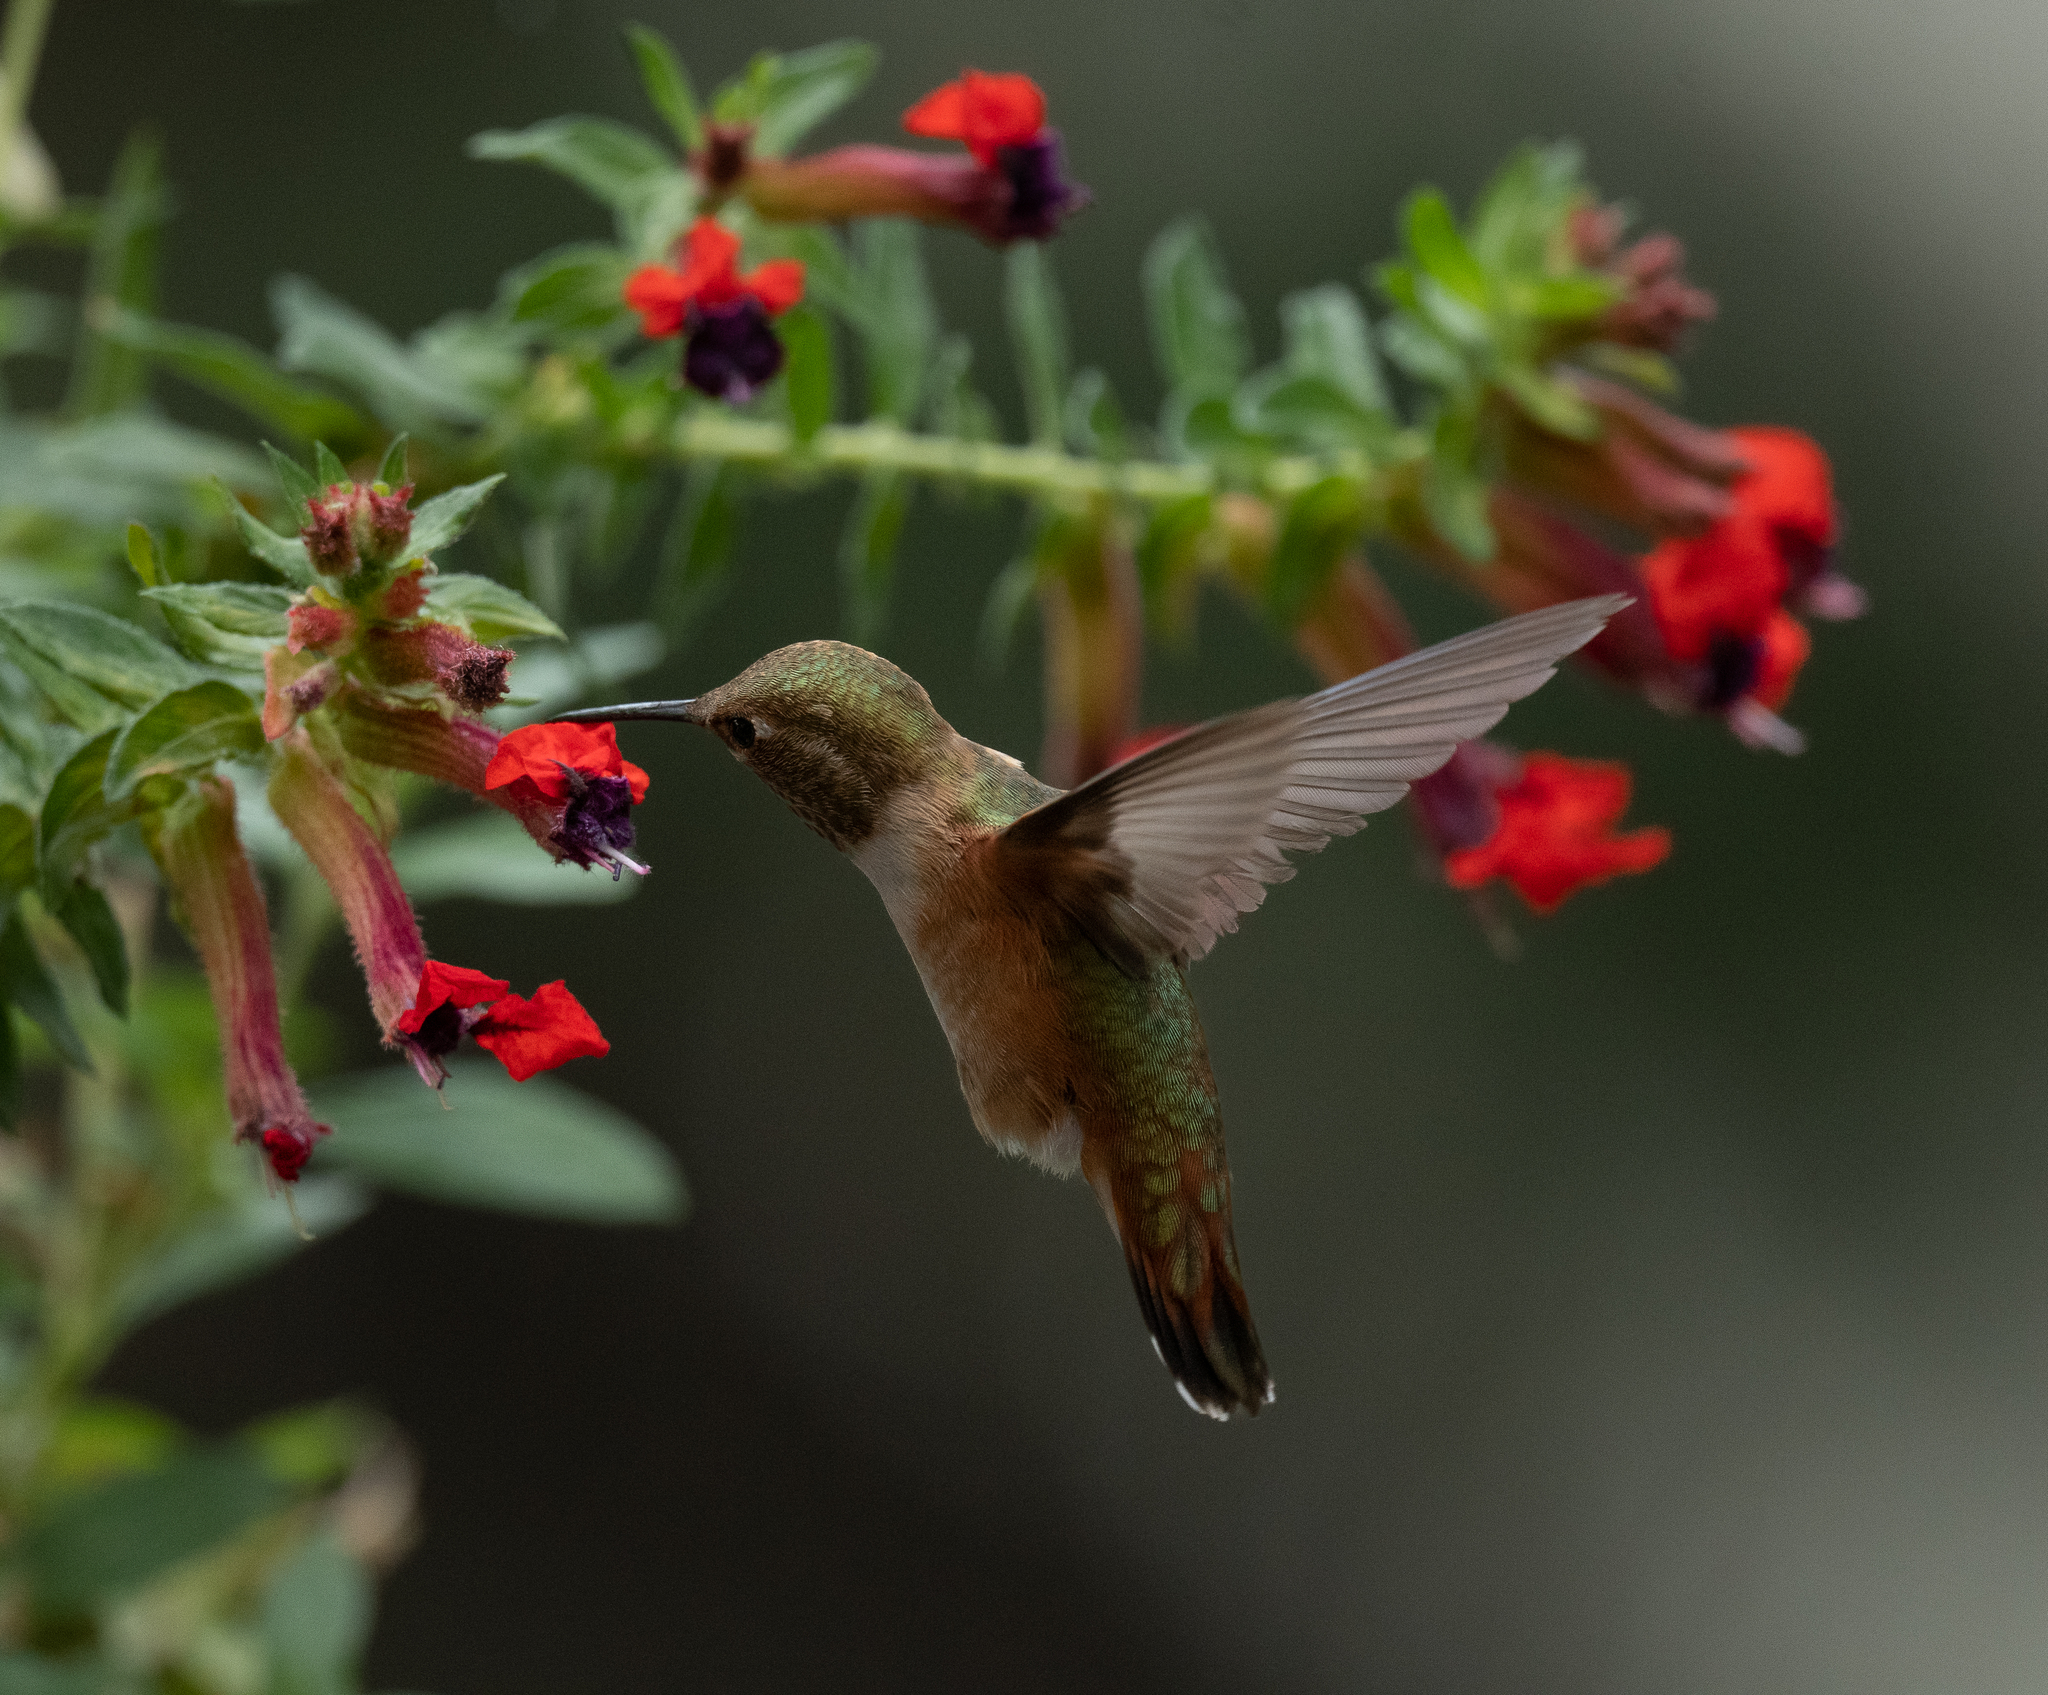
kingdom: Animalia
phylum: Chordata
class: Aves
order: Apodiformes
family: Trochilidae
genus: Selasphorus
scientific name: Selasphorus rufus
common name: Rufous hummingbird
